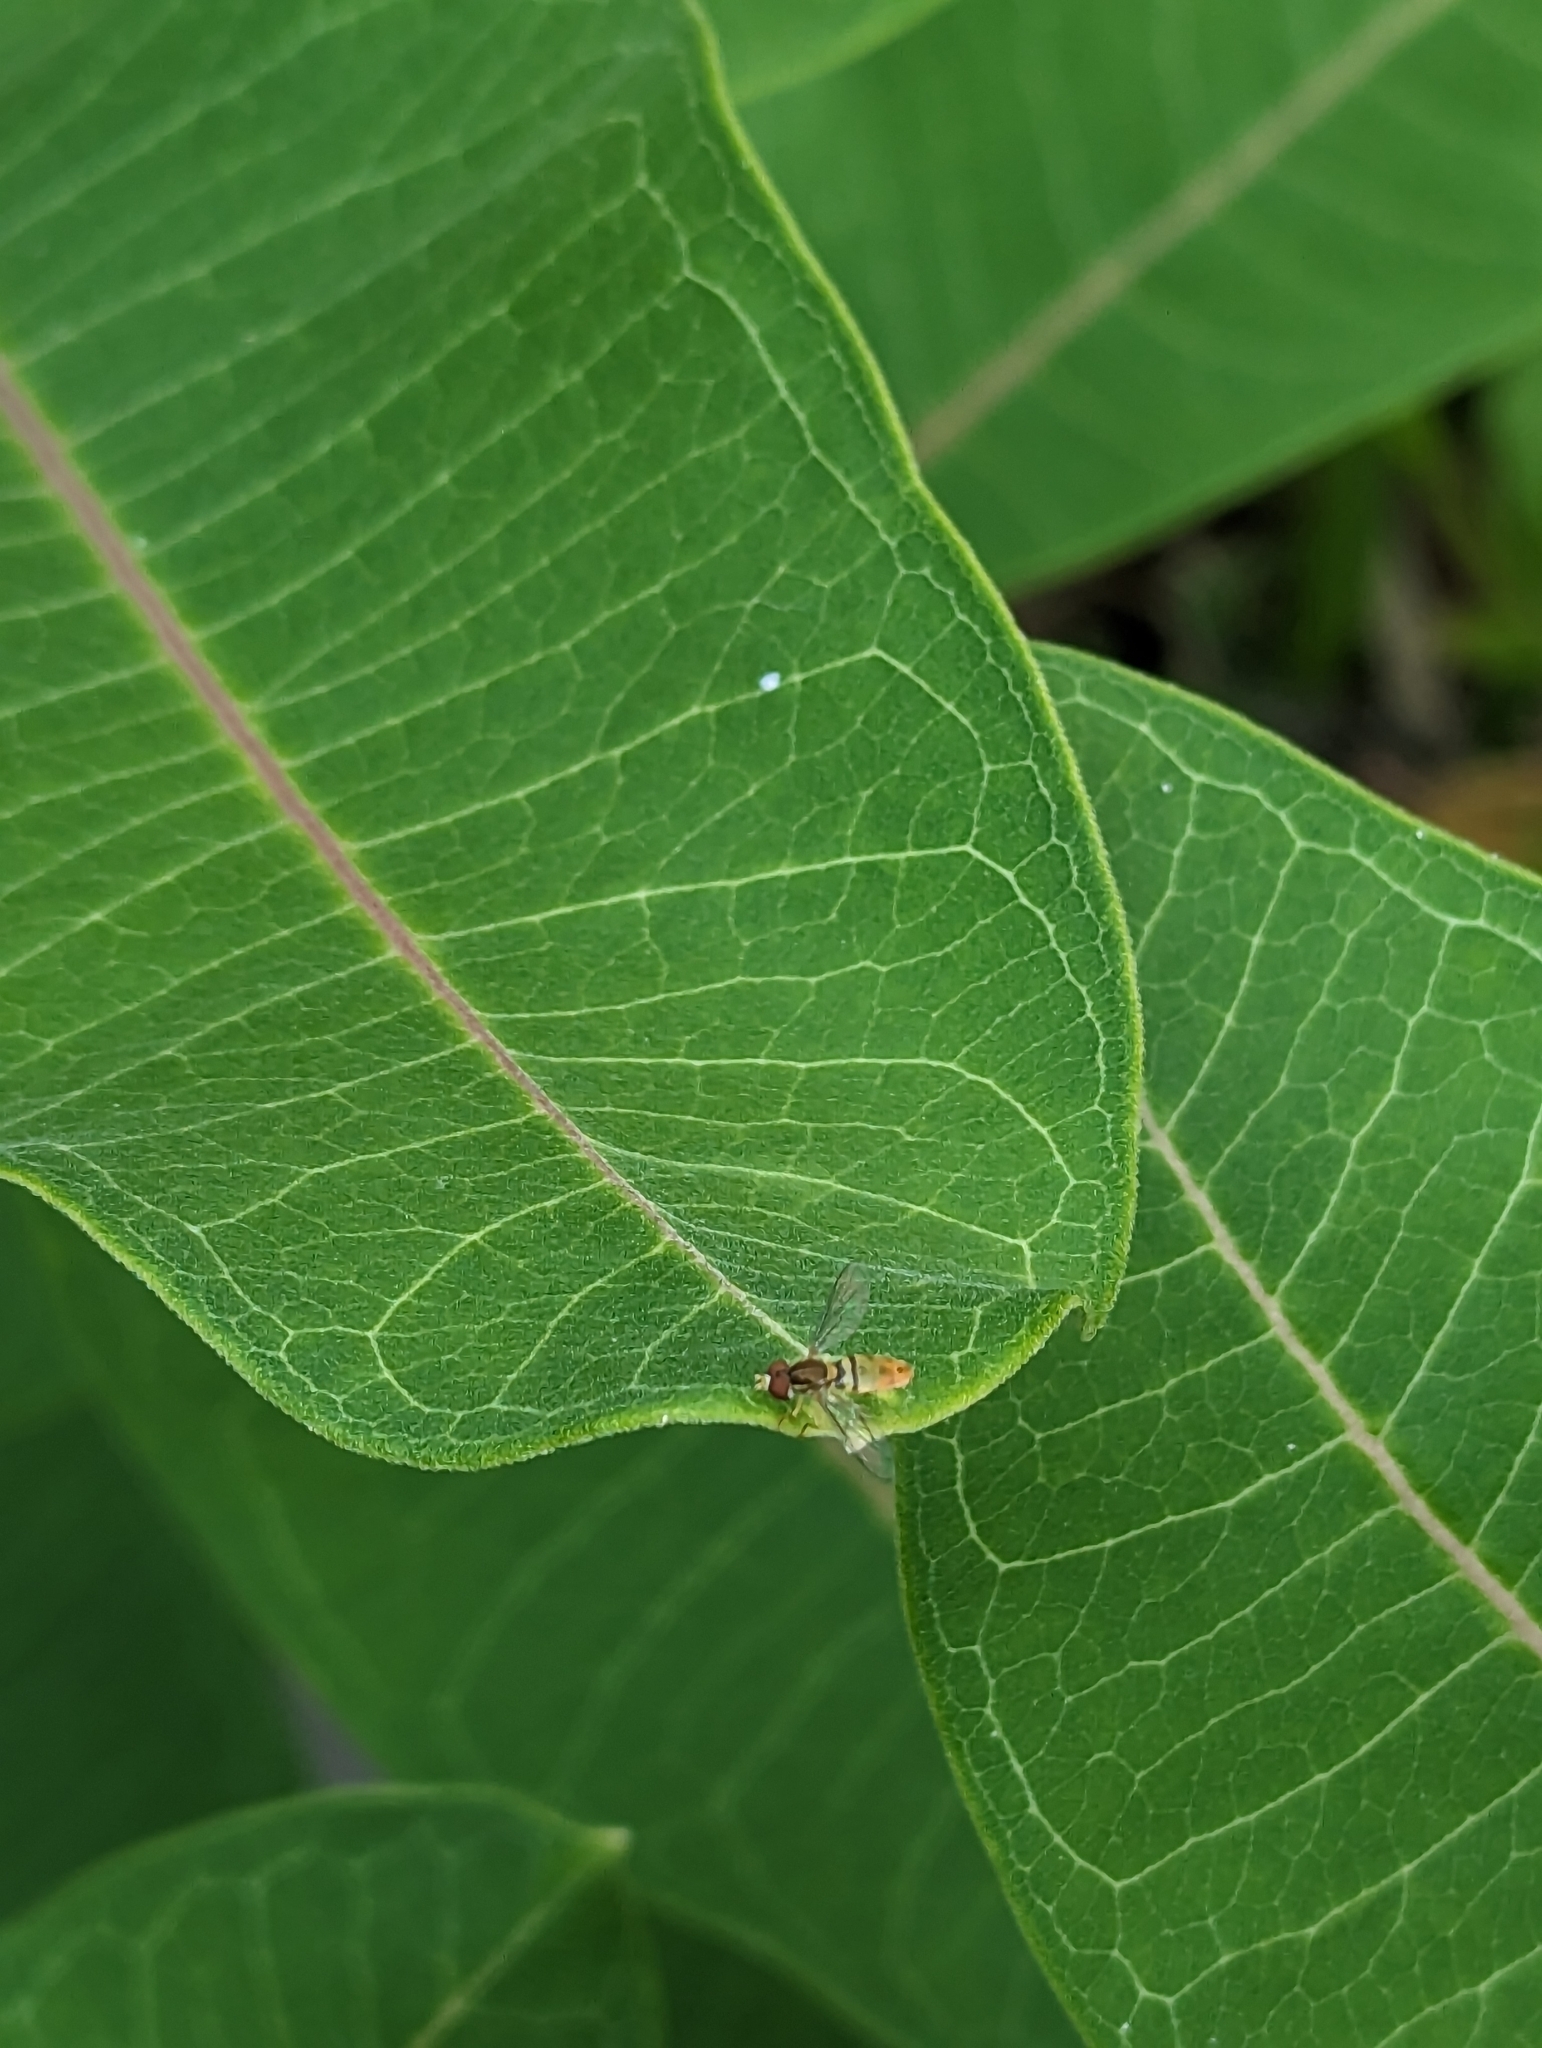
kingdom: Animalia
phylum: Arthropoda
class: Insecta
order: Diptera
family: Syrphidae
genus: Toxomerus
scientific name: Toxomerus marginatus
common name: Syrphid fly
